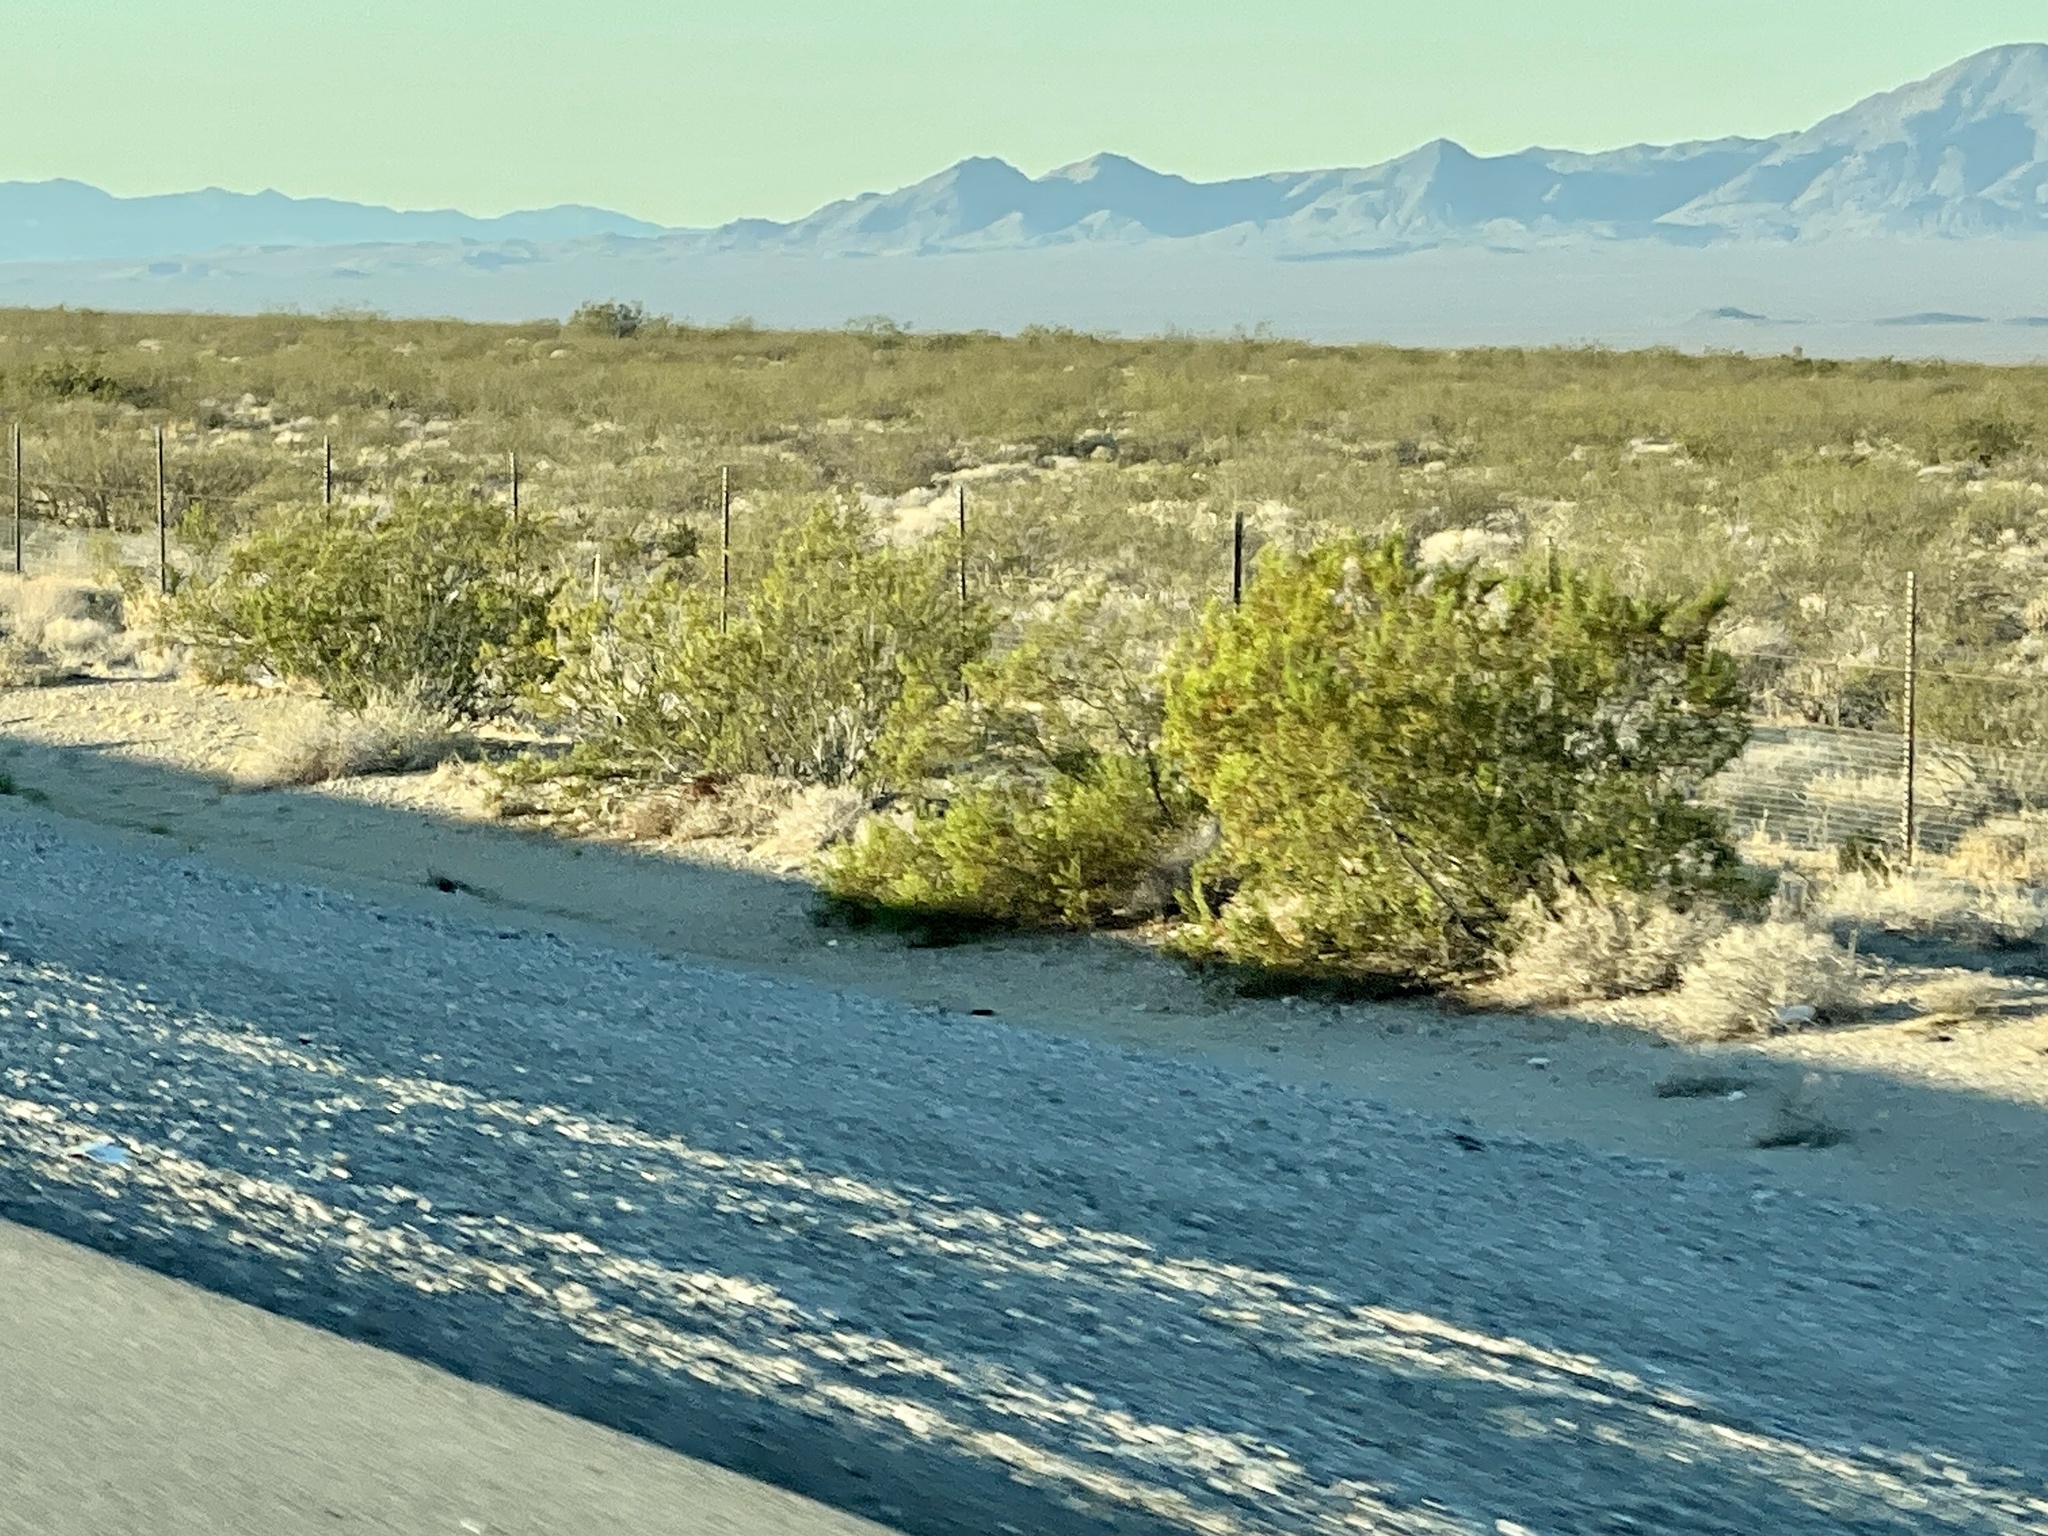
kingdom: Plantae
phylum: Tracheophyta
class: Magnoliopsida
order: Zygophyllales
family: Zygophyllaceae
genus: Larrea
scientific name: Larrea tridentata
